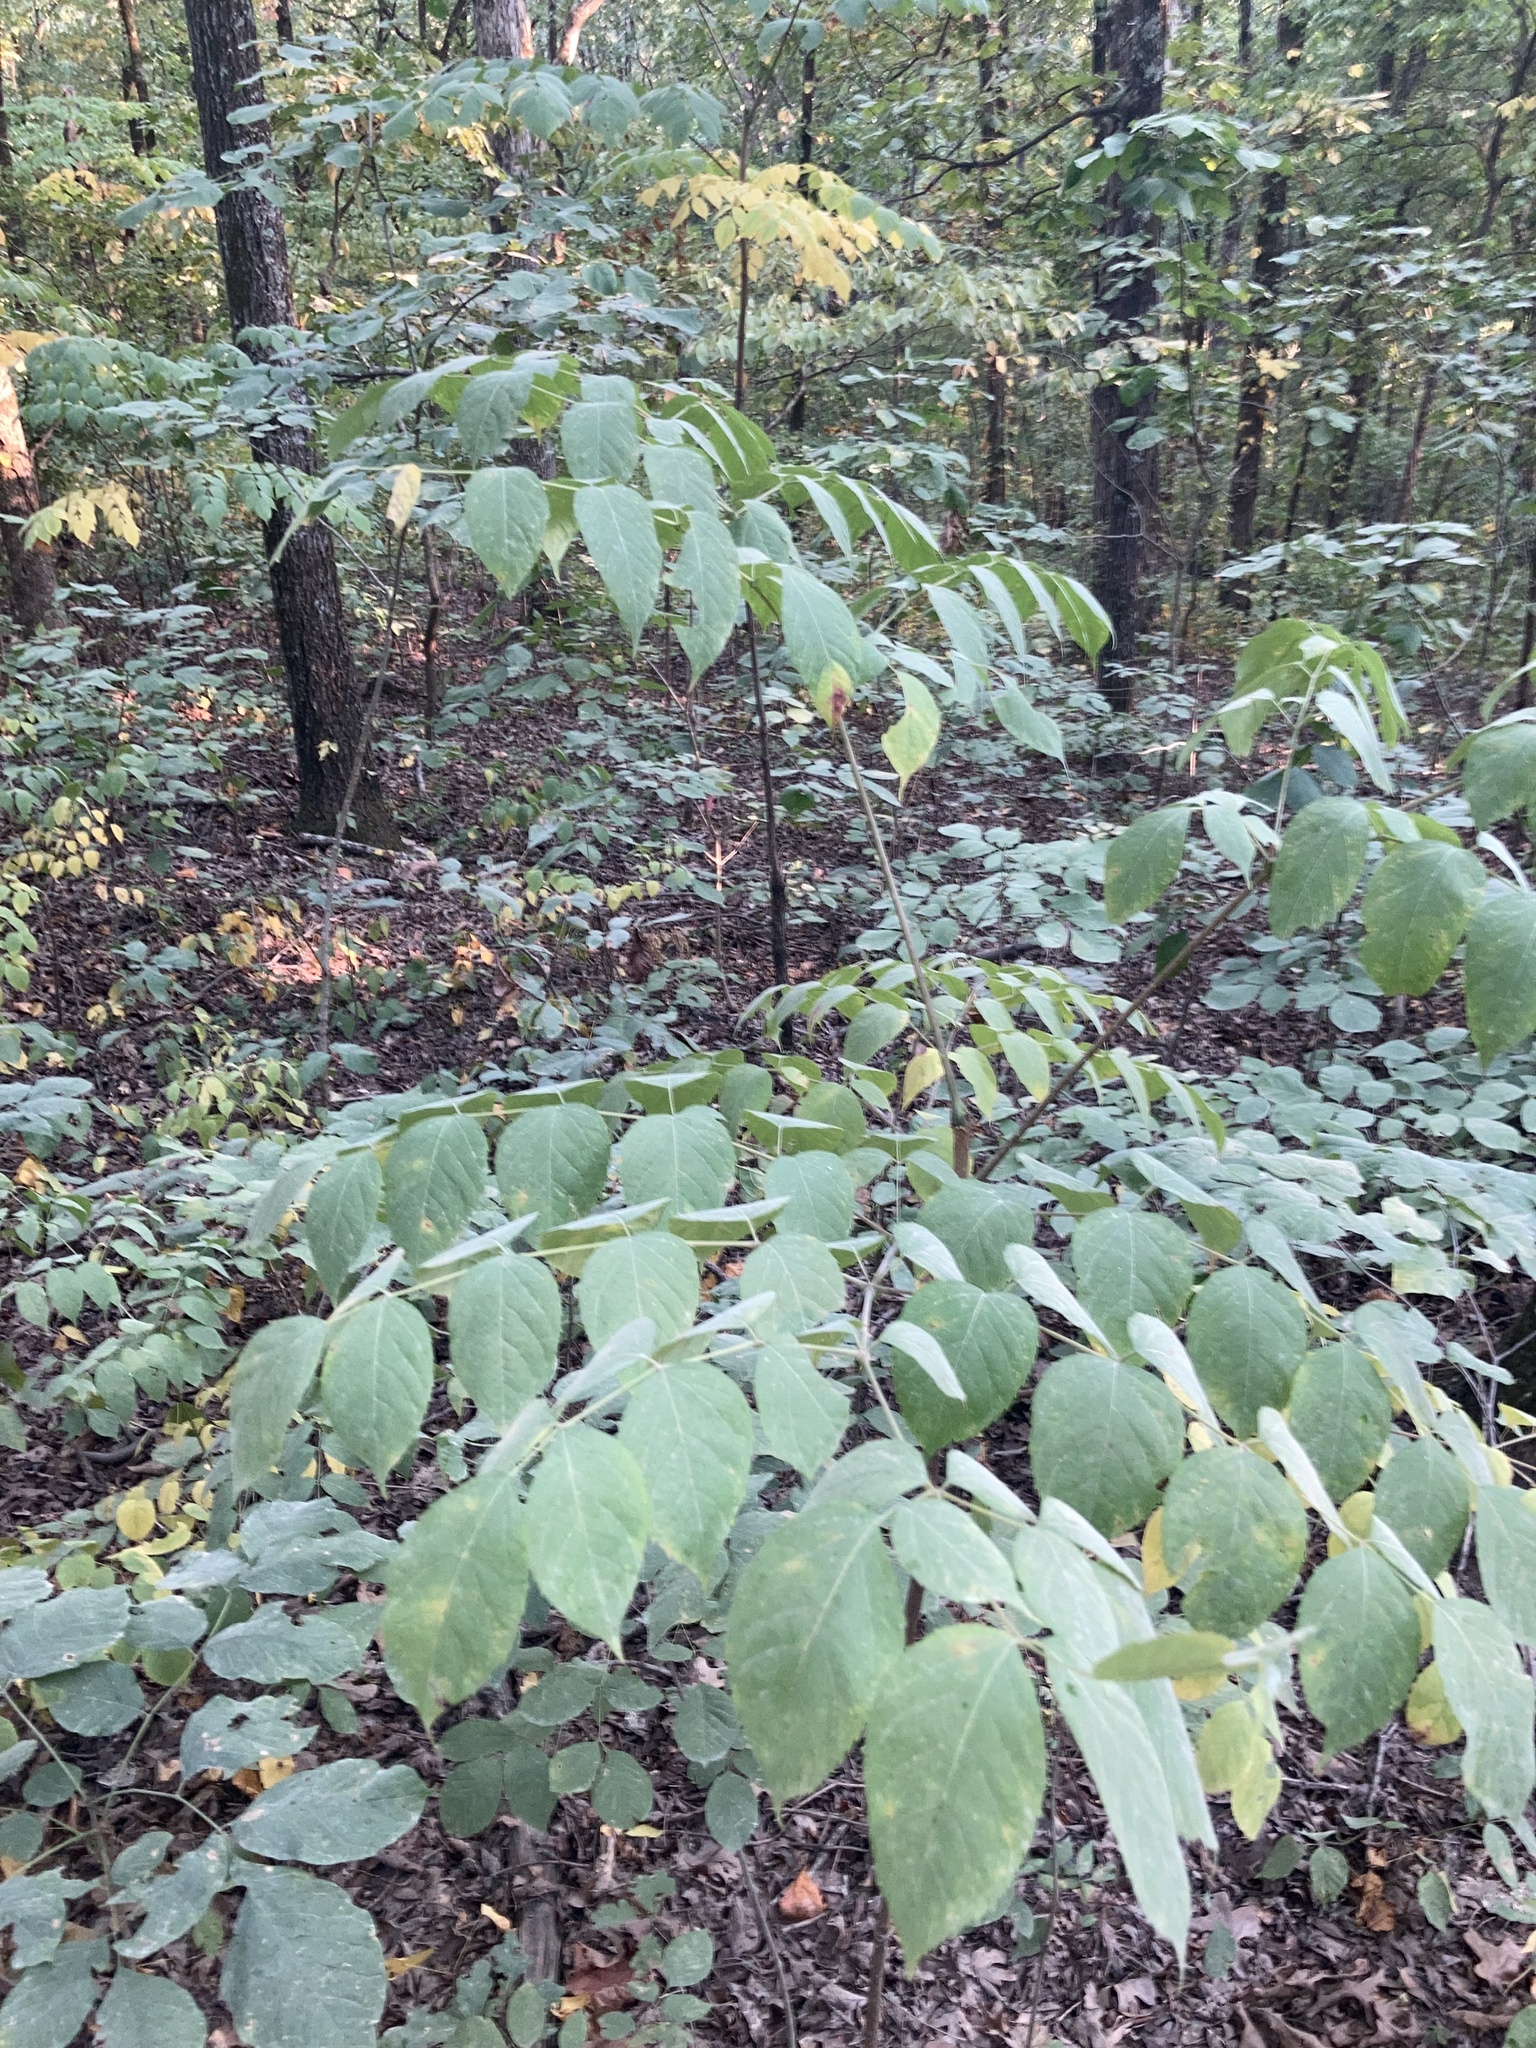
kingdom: Plantae
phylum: Tracheophyta
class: Magnoliopsida
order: Apiales
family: Araliaceae
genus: Aralia
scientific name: Aralia spinosa
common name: Hercules'-club
